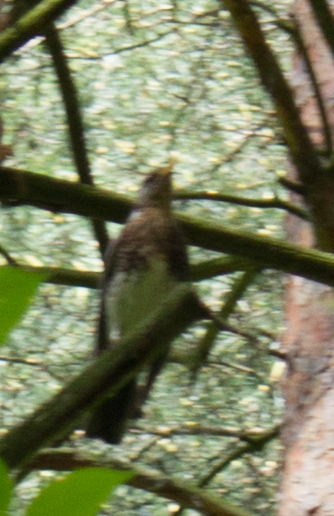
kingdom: Animalia
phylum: Chordata
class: Aves
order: Passeriformes
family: Turdidae
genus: Turdus
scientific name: Turdus pilaris
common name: Fieldfare
